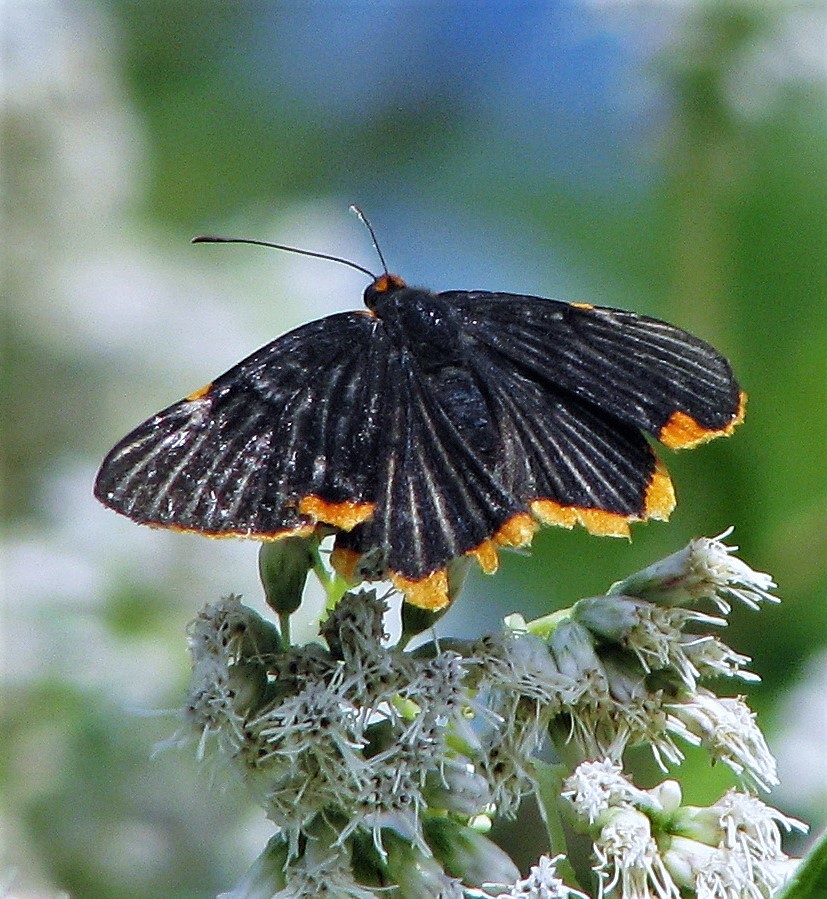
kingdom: Animalia
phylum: Arthropoda
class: Insecta
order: Lepidoptera
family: Riodinidae
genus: Riodina
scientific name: Riodina lycisca
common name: Lycisca metalmark
